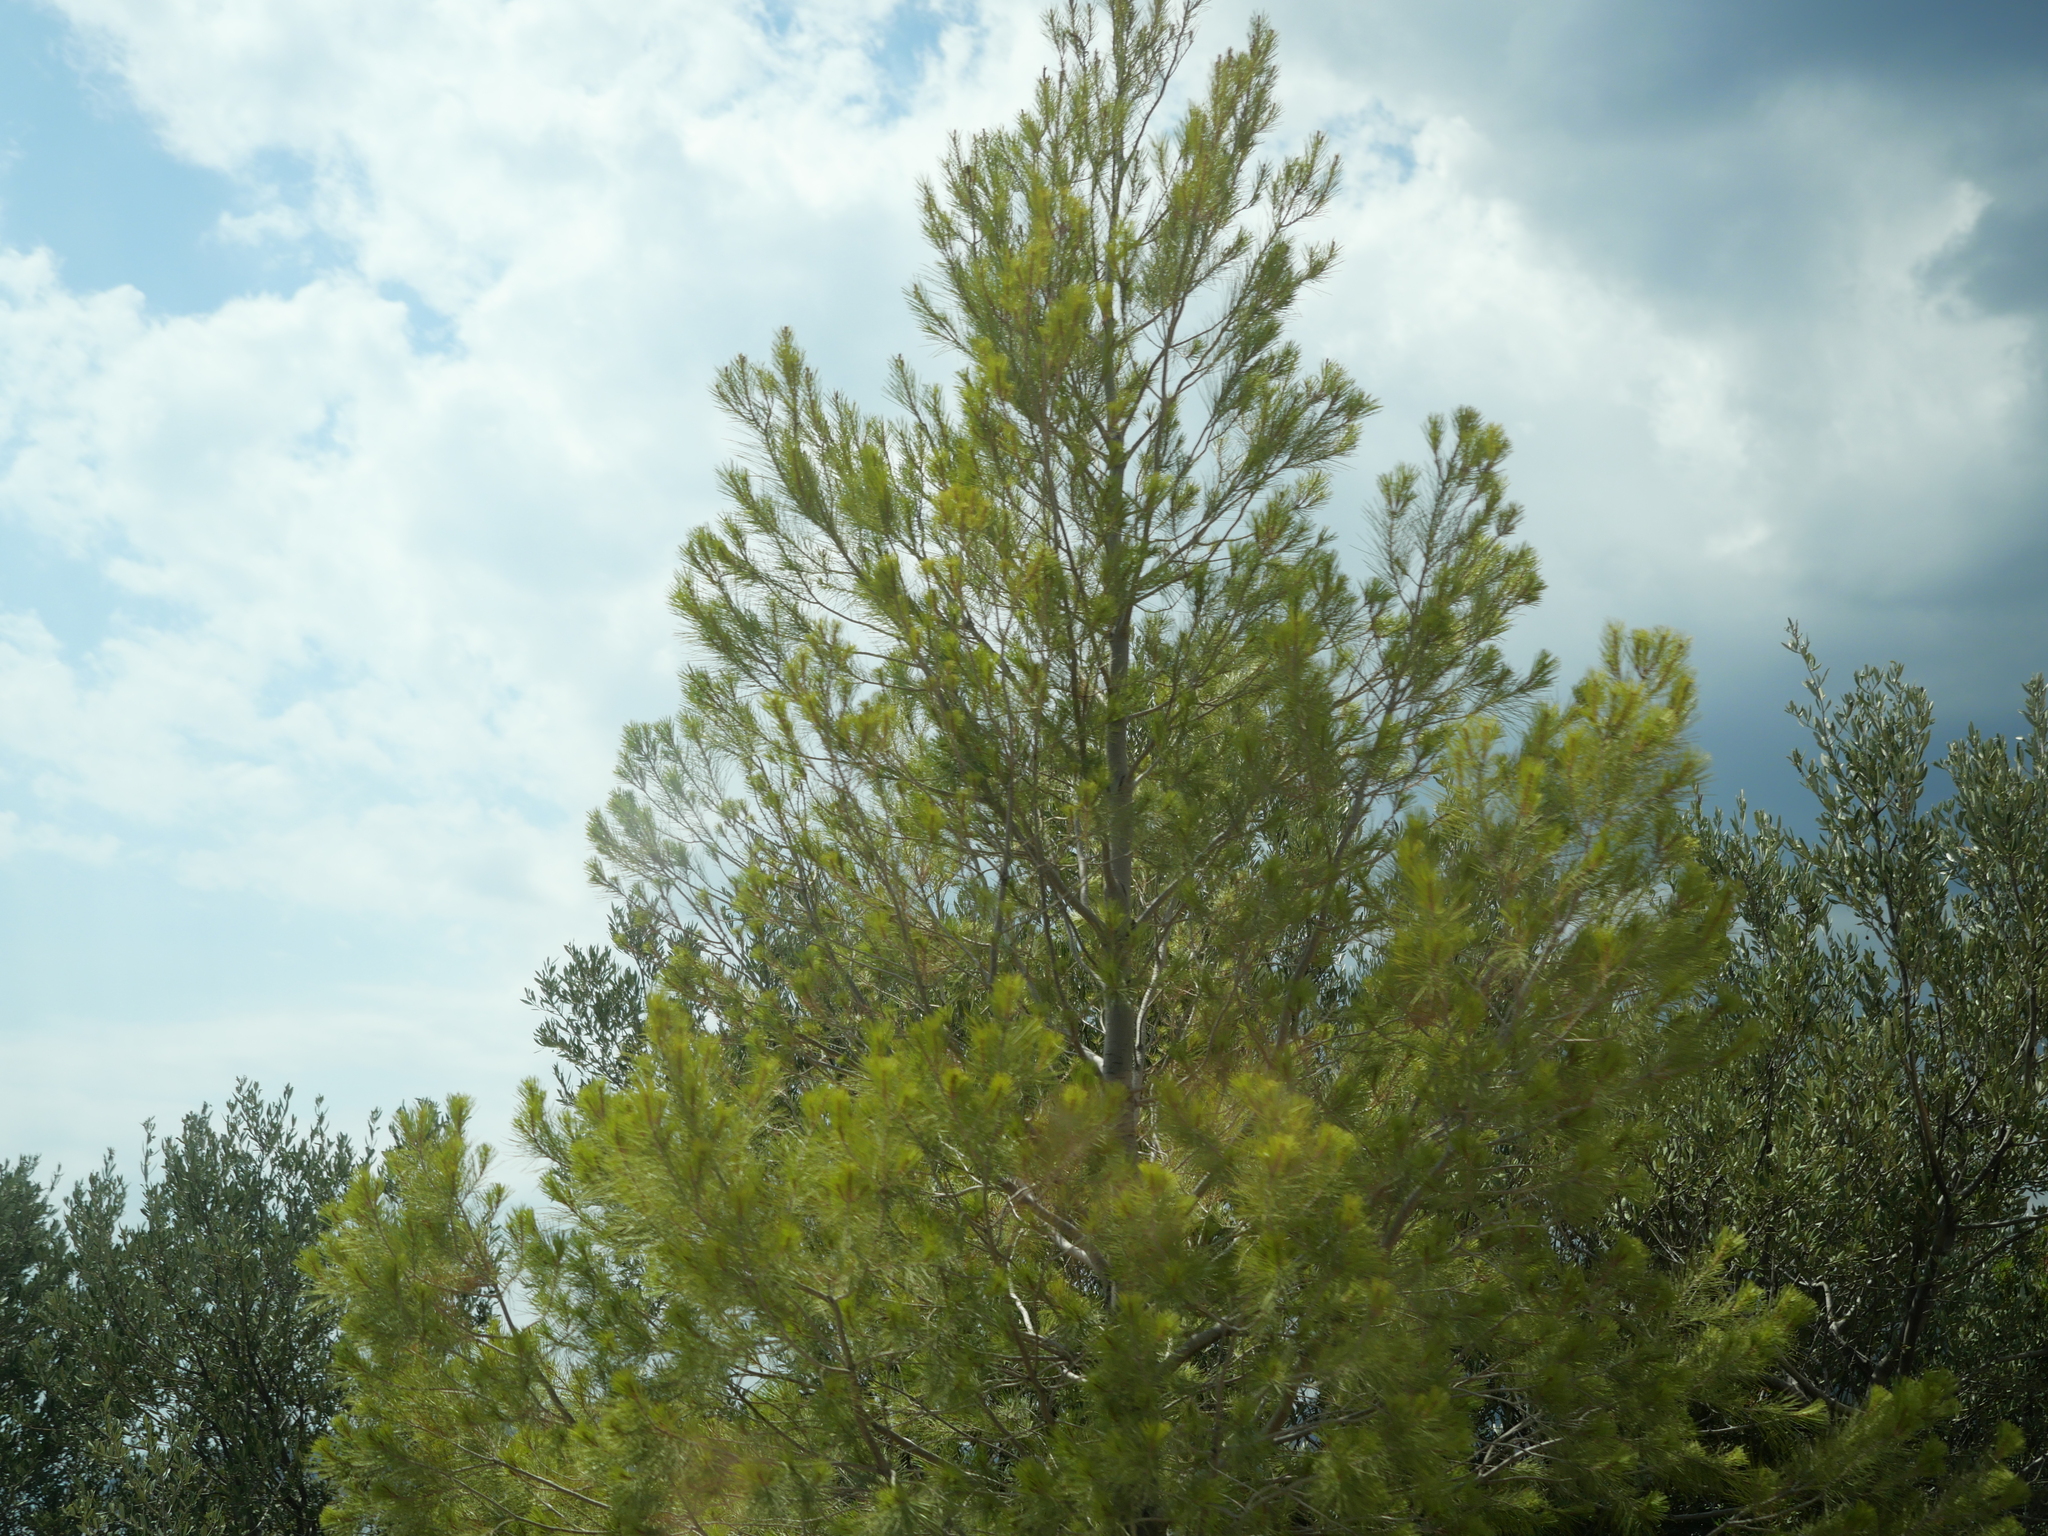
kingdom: Plantae
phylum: Tracheophyta
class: Pinopsida
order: Pinales
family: Pinaceae
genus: Pinus
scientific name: Pinus halepensis
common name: Aleppo pine
